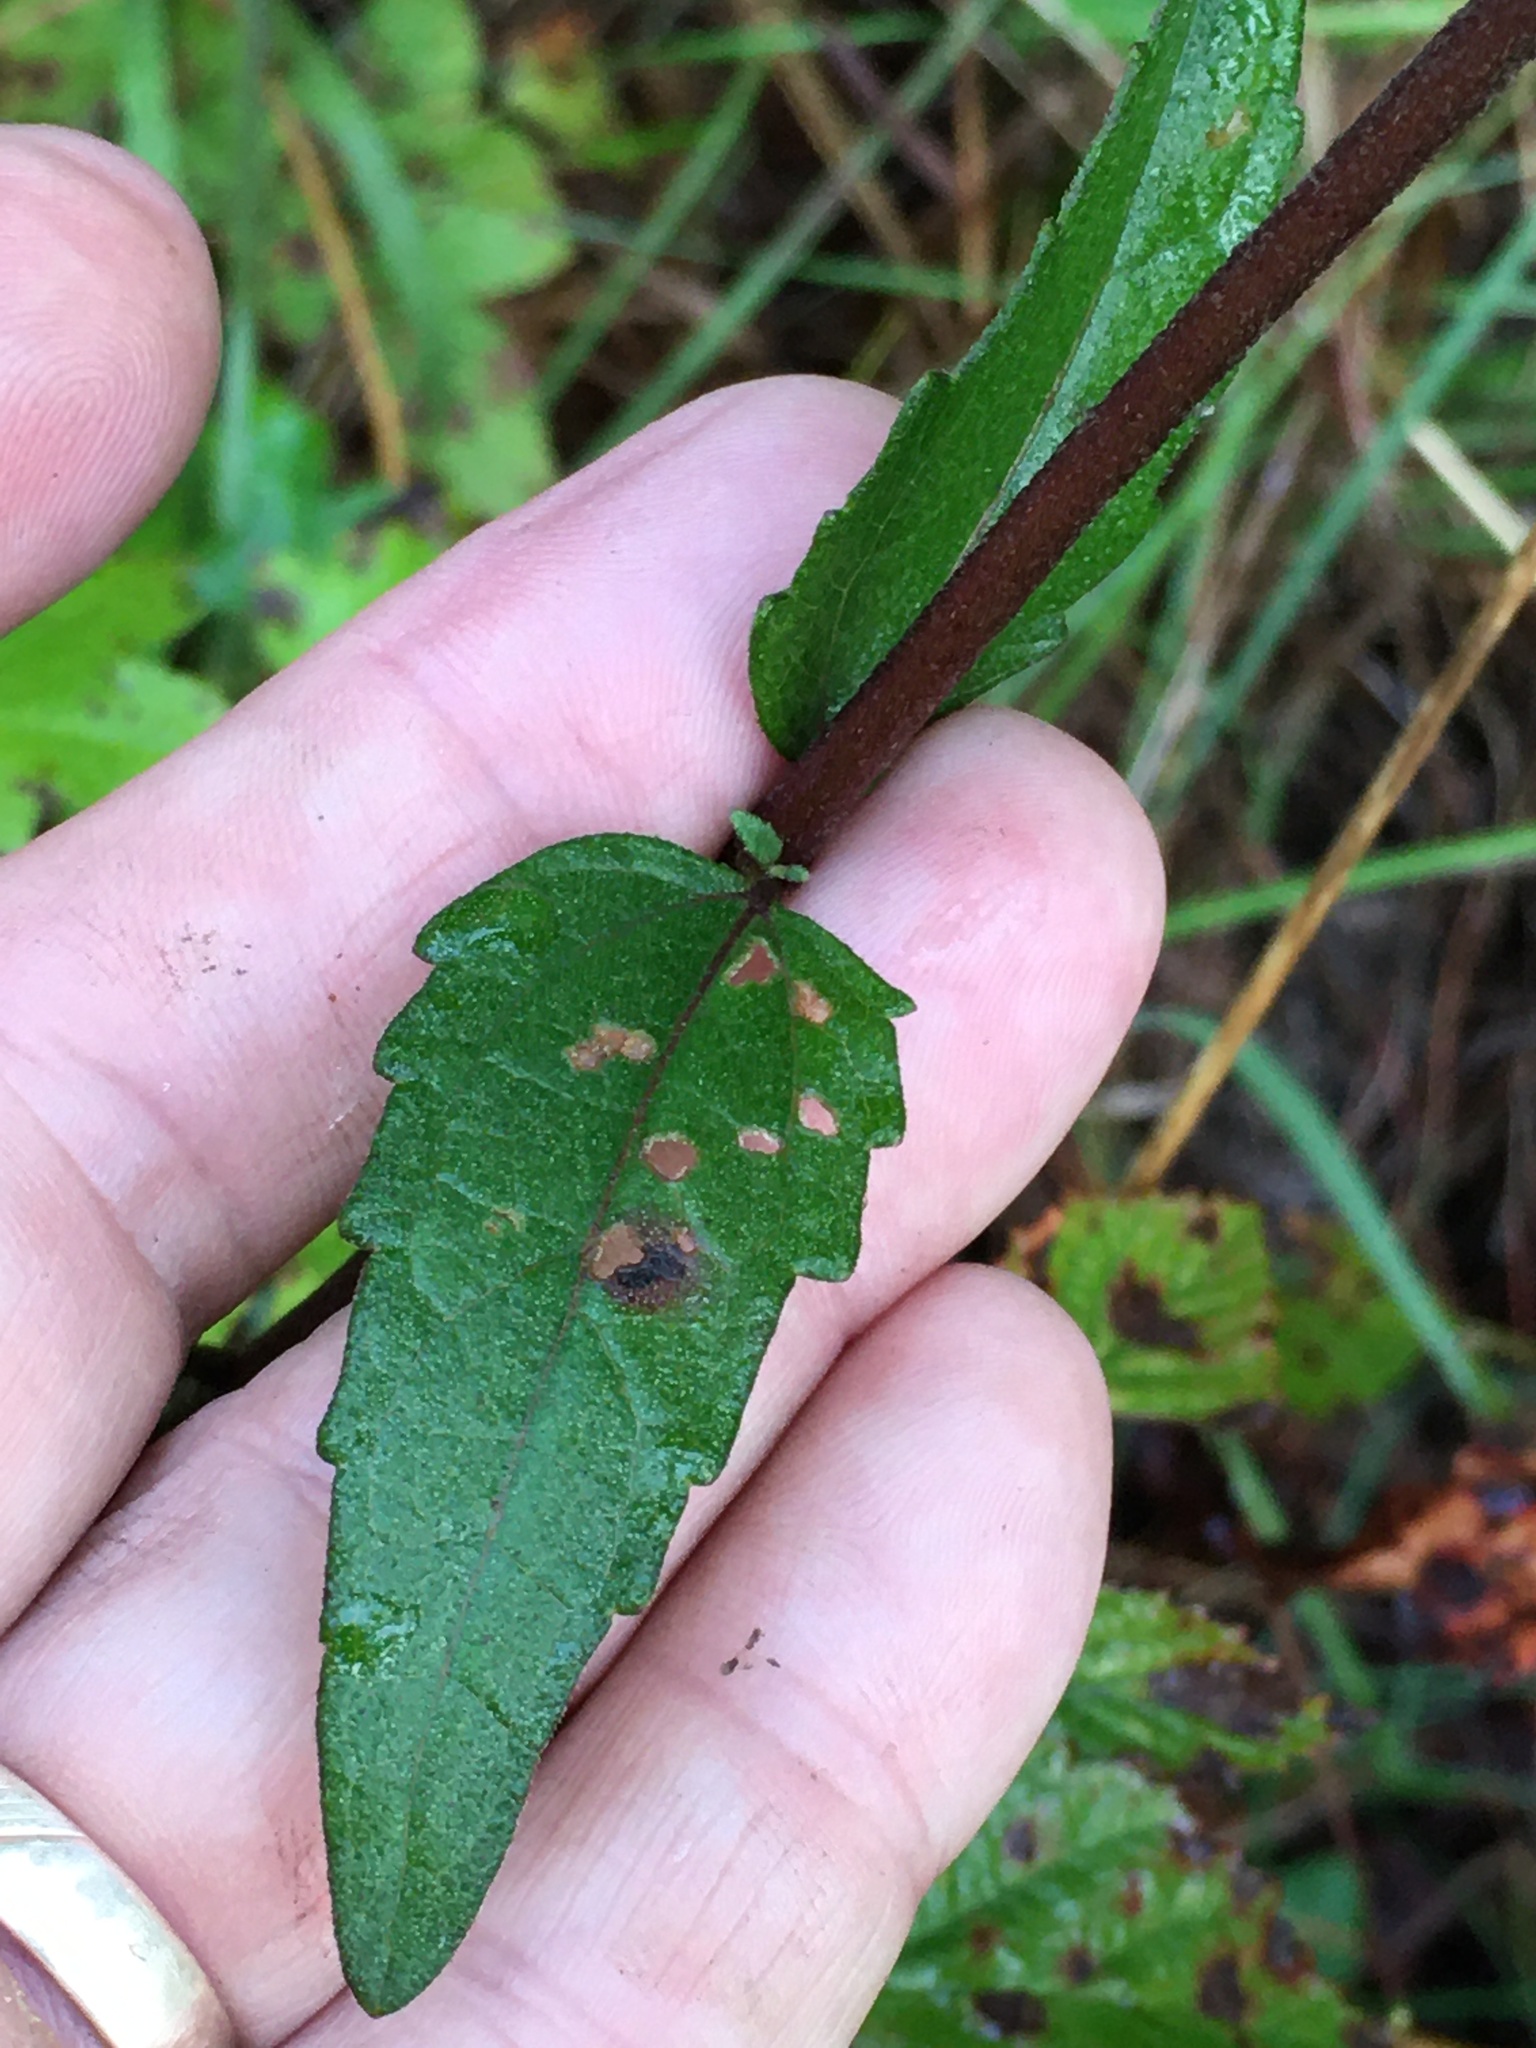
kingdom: Plantae
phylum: Tracheophyta
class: Magnoliopsida
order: Asterales
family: Asteraceae
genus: Eupatorium
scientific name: Eupatorium pilosum
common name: Rough boneset
